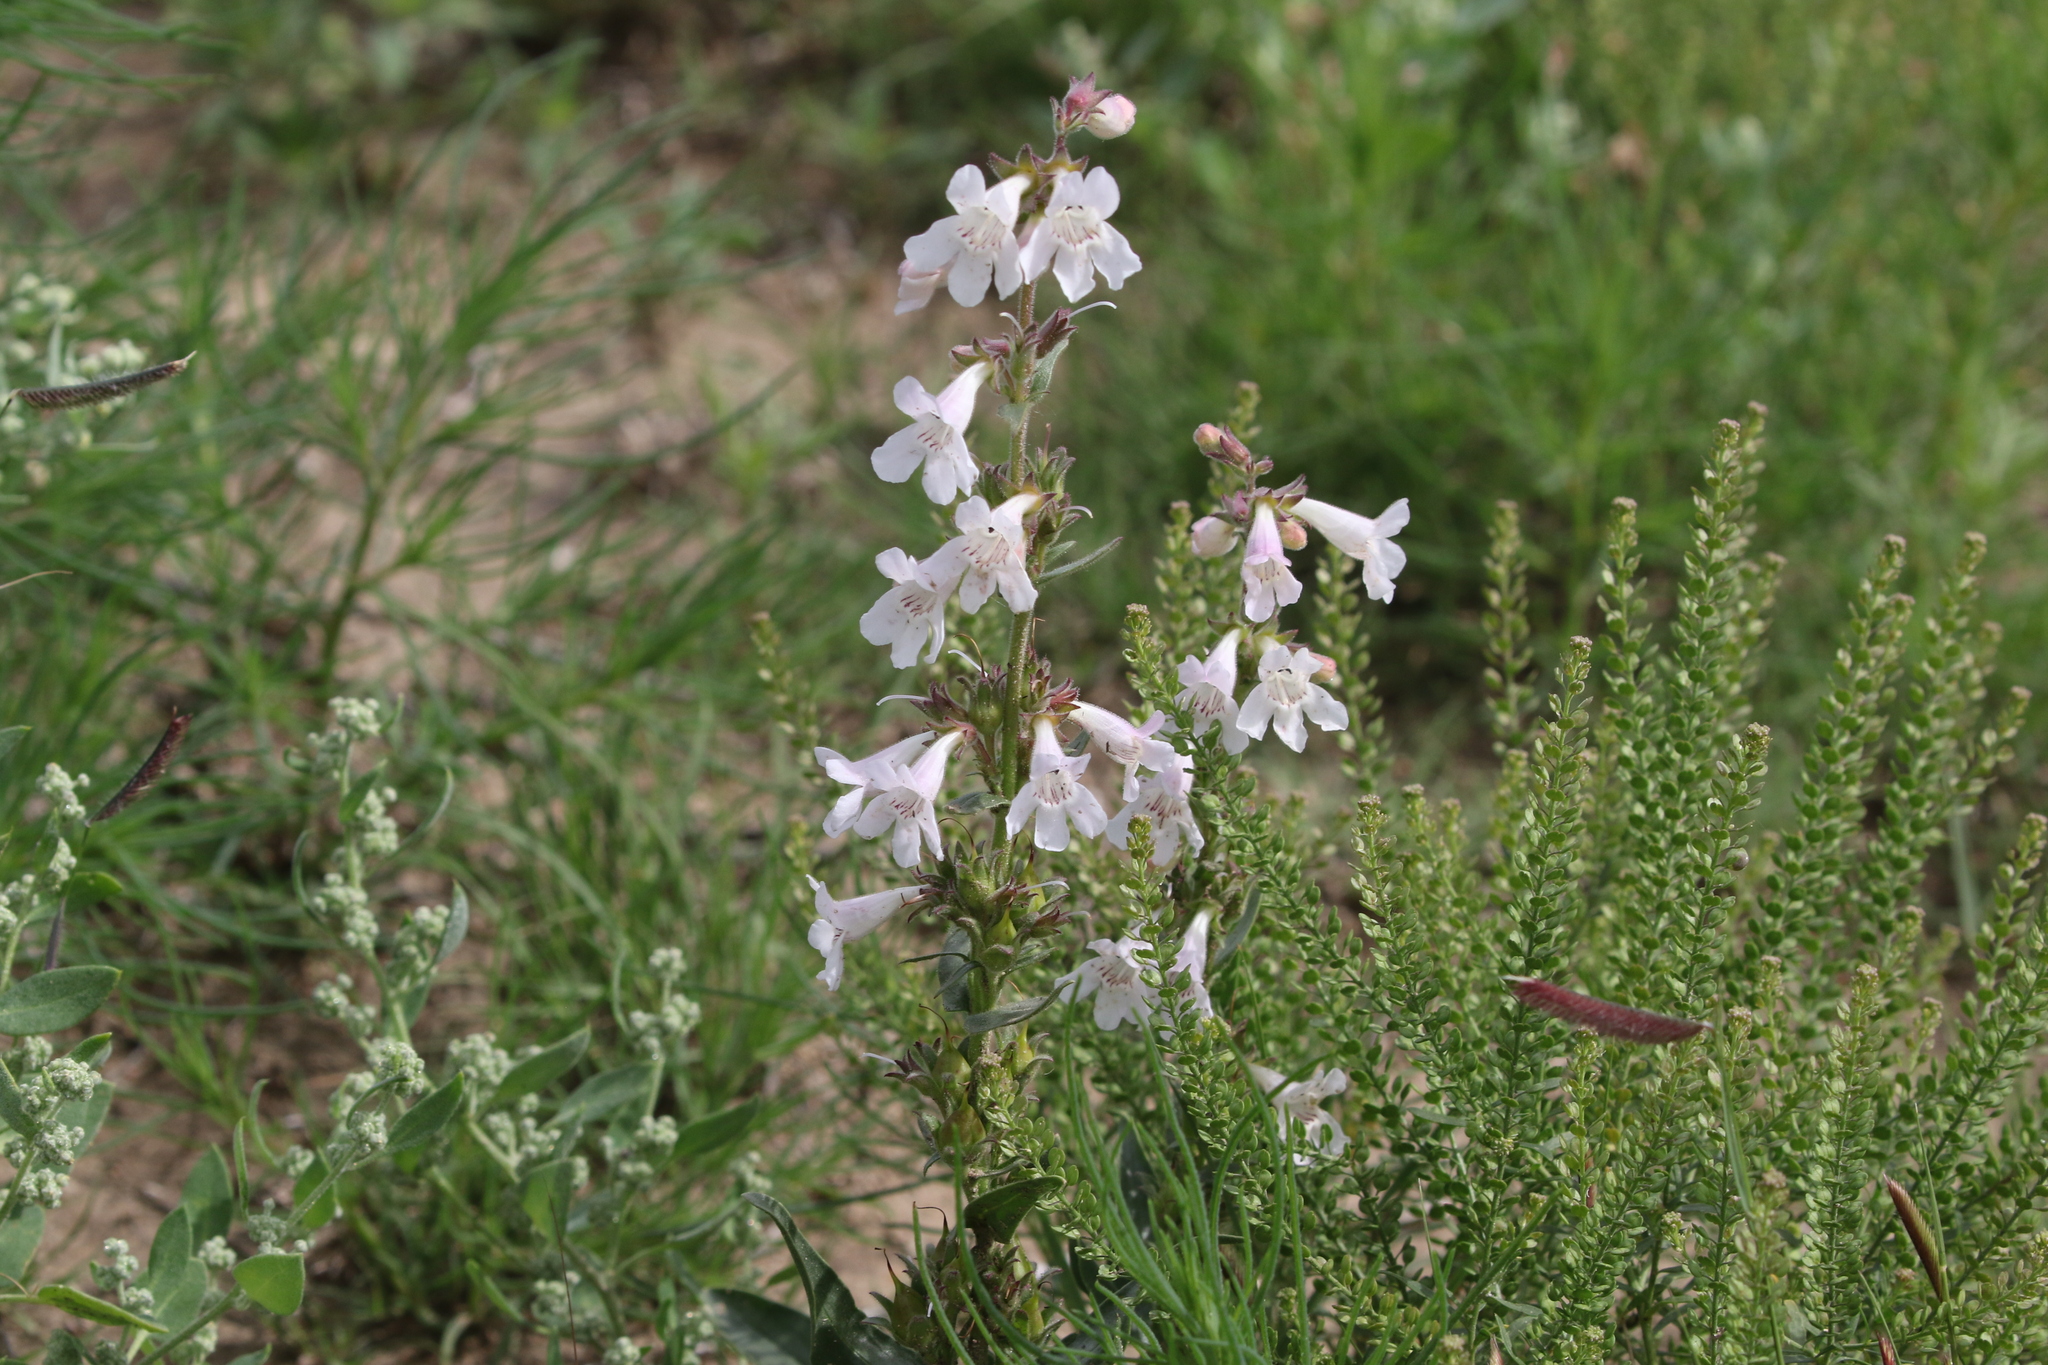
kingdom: Plantae
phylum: Tracheophyta
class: Magnoliopsida
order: Lamiales
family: Plantaginaceae
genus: Penstemon
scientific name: Penstemon albidus
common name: White beardtongue
